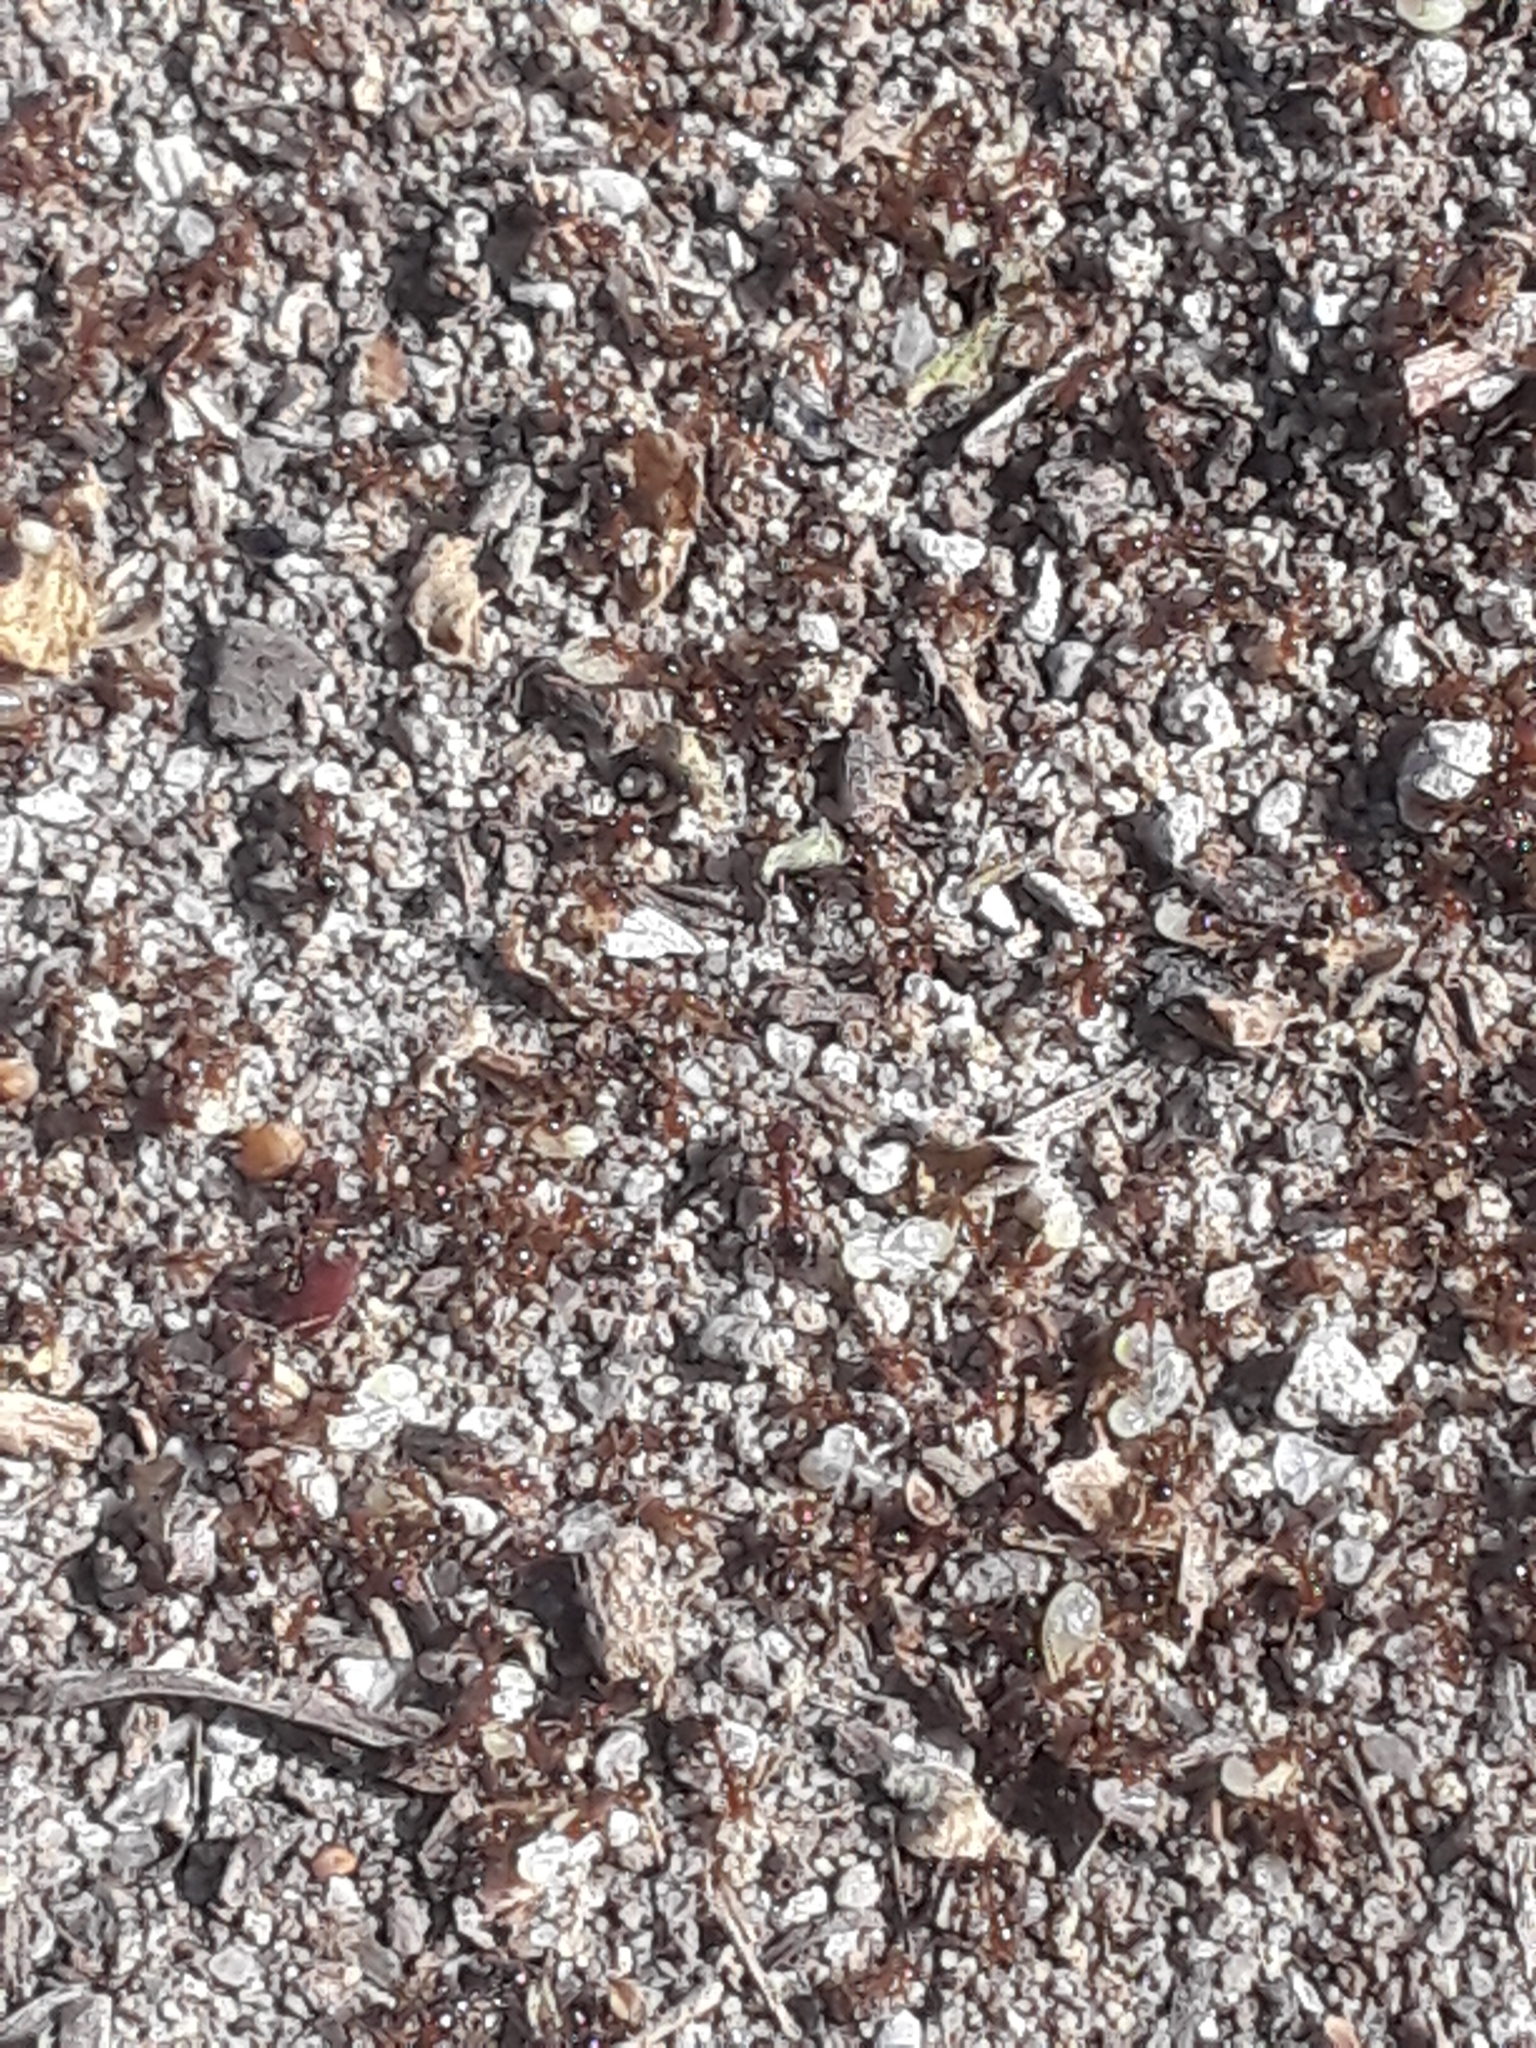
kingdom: Animalia
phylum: Arthropoda
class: Insecta
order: Hymenoptera
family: Formicidae
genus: Solenopsis
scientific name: Solenopsis invicta
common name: Red imported fire ant
